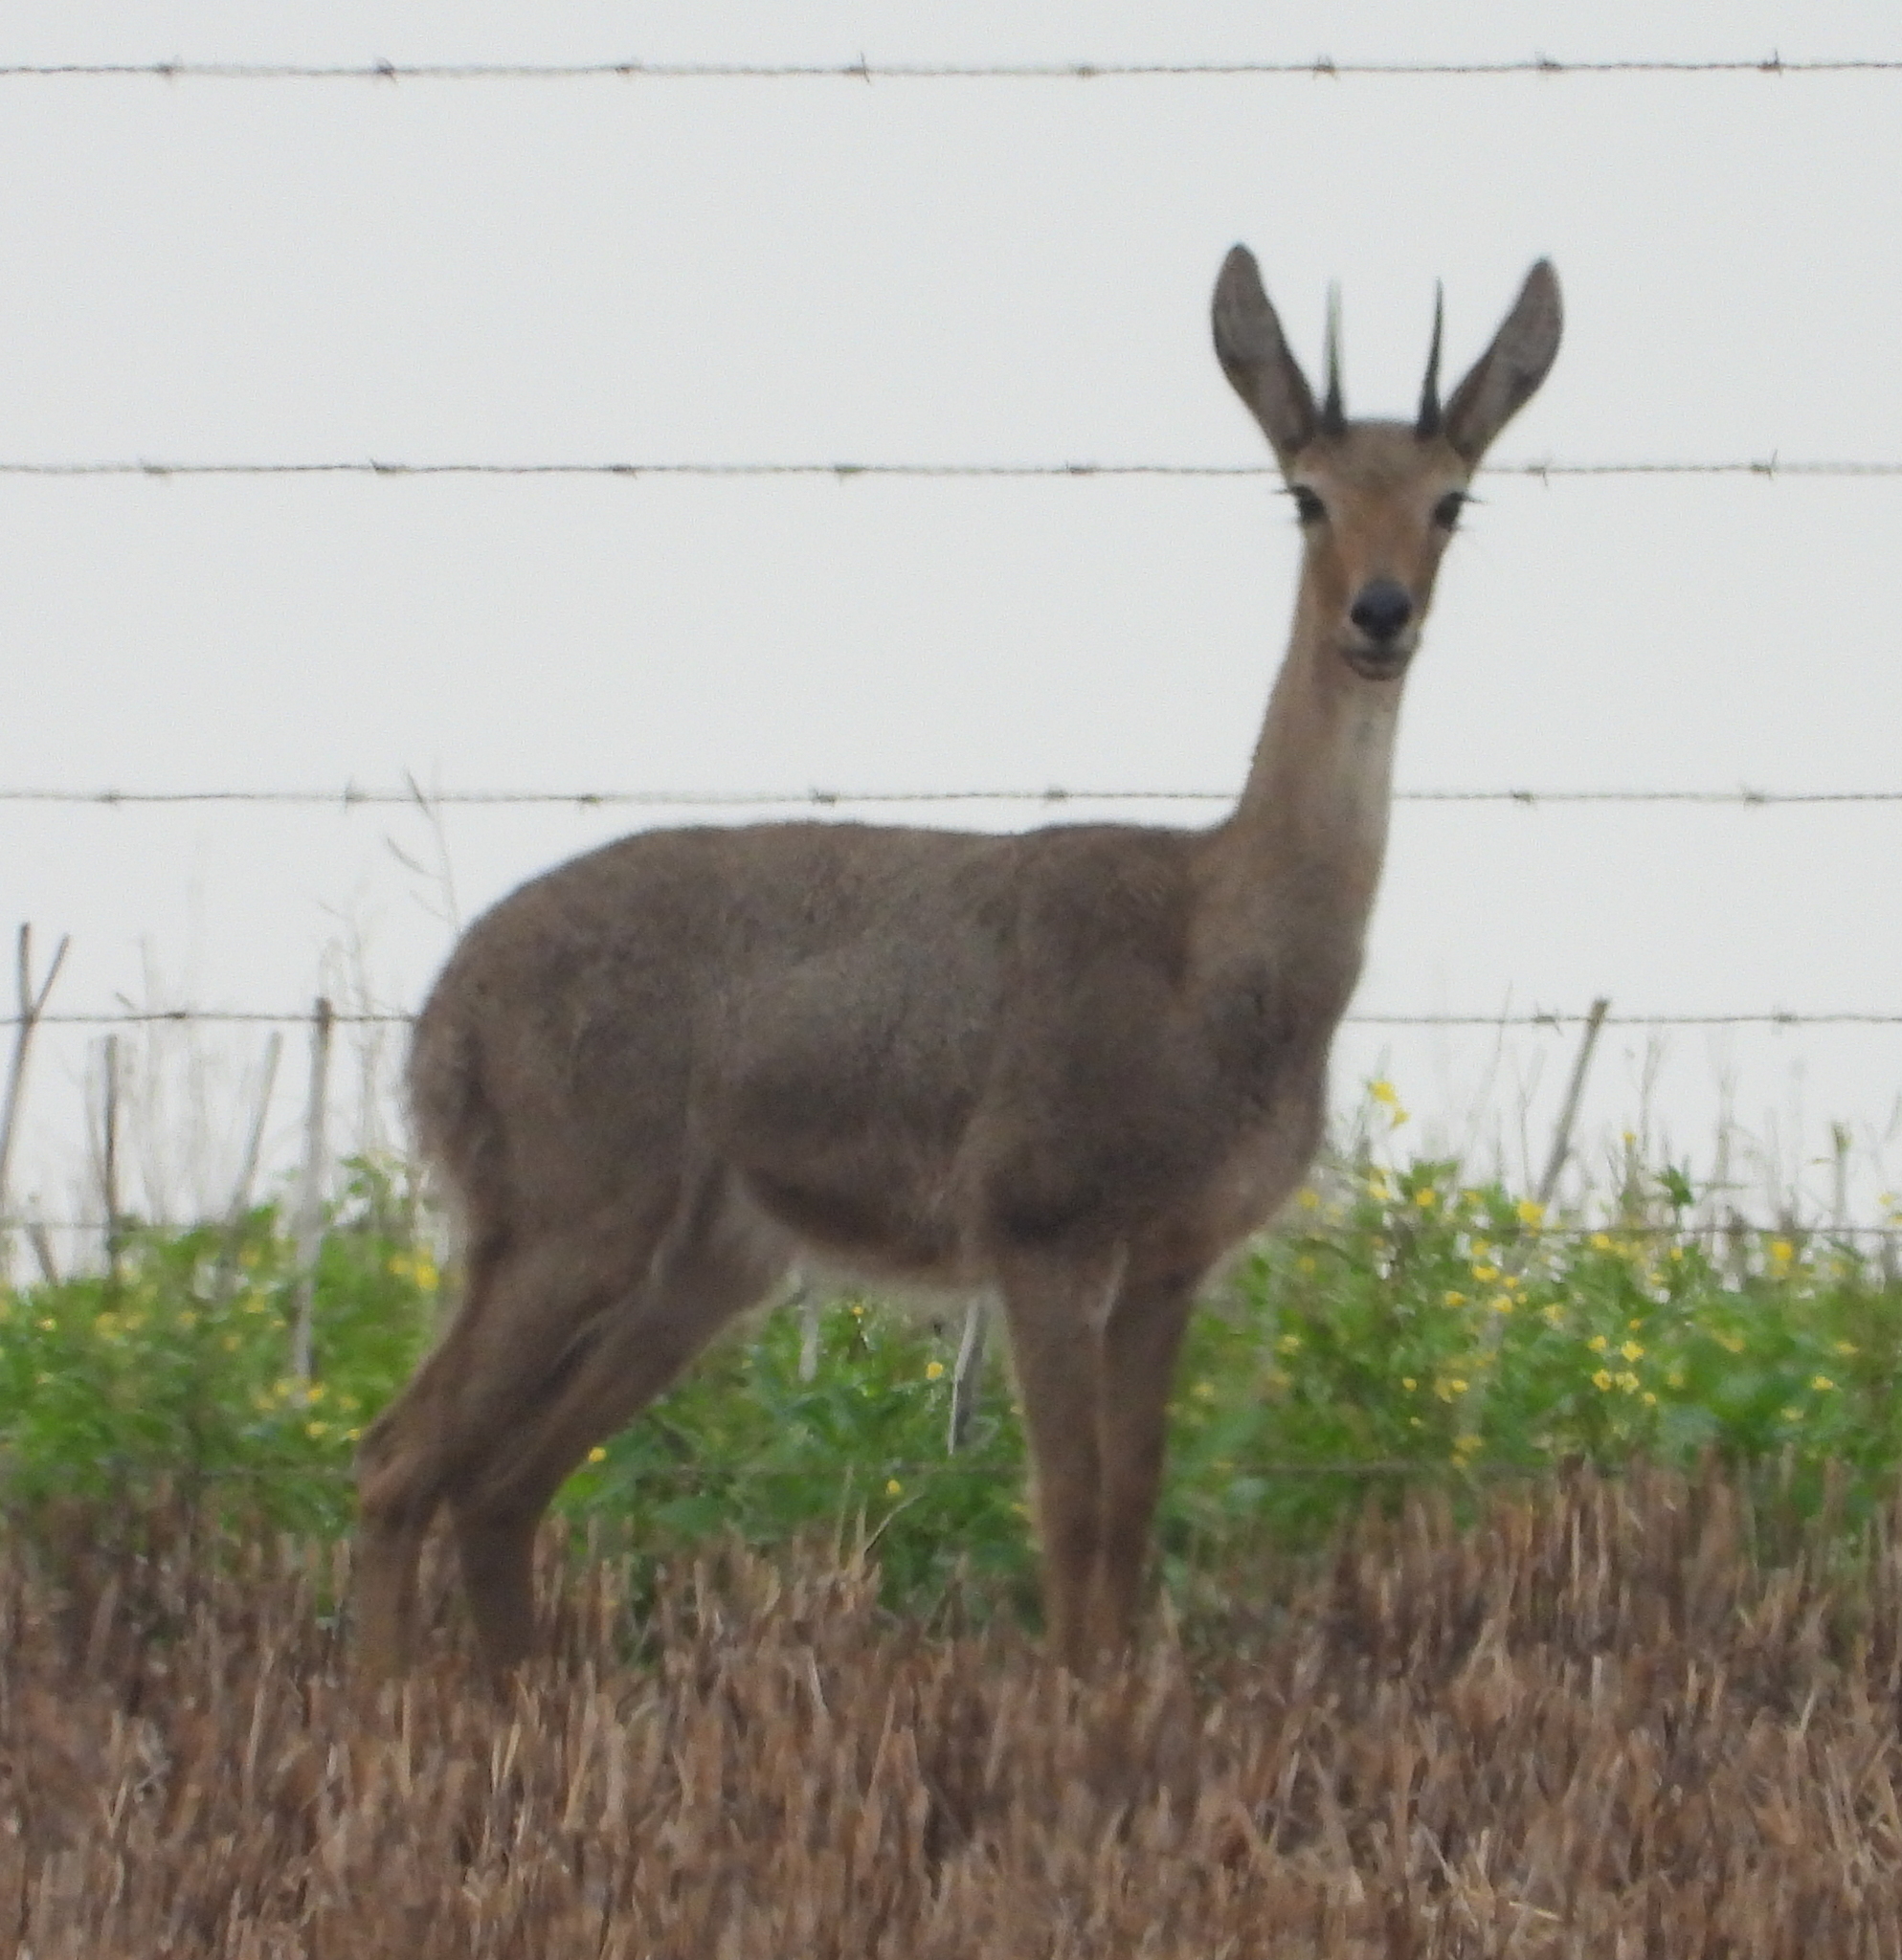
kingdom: Animalia
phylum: Chordata
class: Mammalia
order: Artiodactyla
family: Bovidae
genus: Pelea
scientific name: Pelea capreolus
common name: Common rhebok
